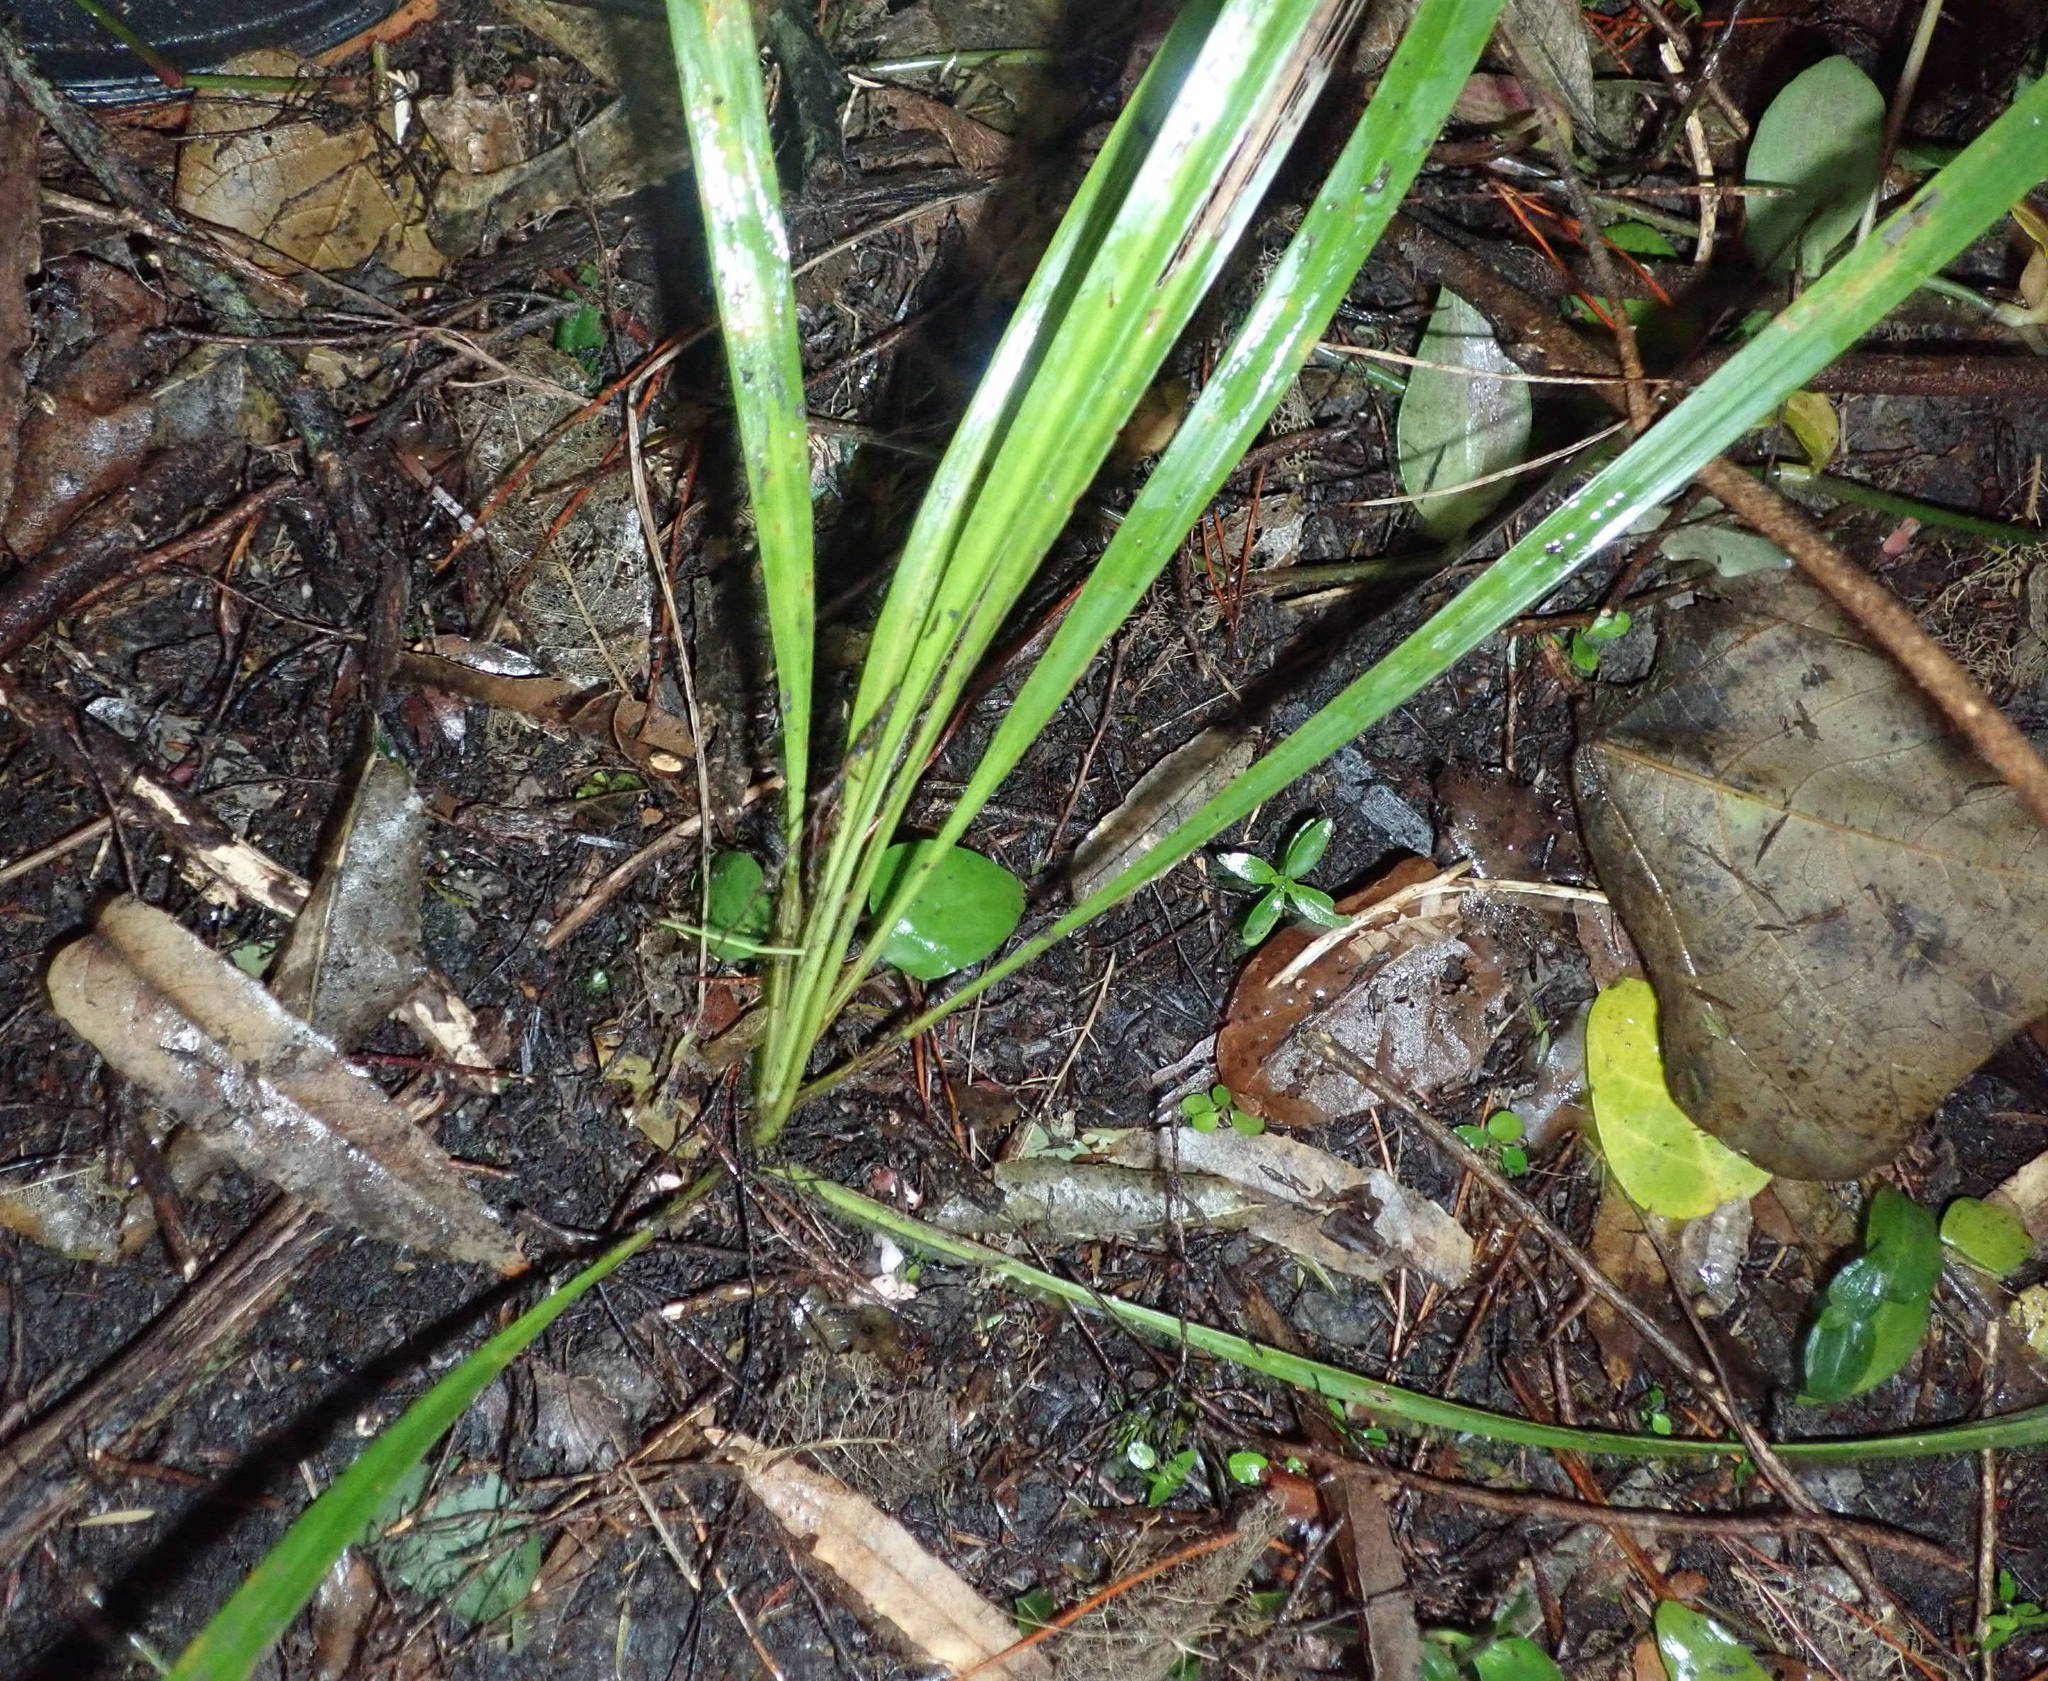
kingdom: Plantae
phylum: Tracheophyta
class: Liliopsida
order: Asparagales
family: Asparagaceae
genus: Cordyline
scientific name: Cordyline australis
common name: Cabbage-palm
